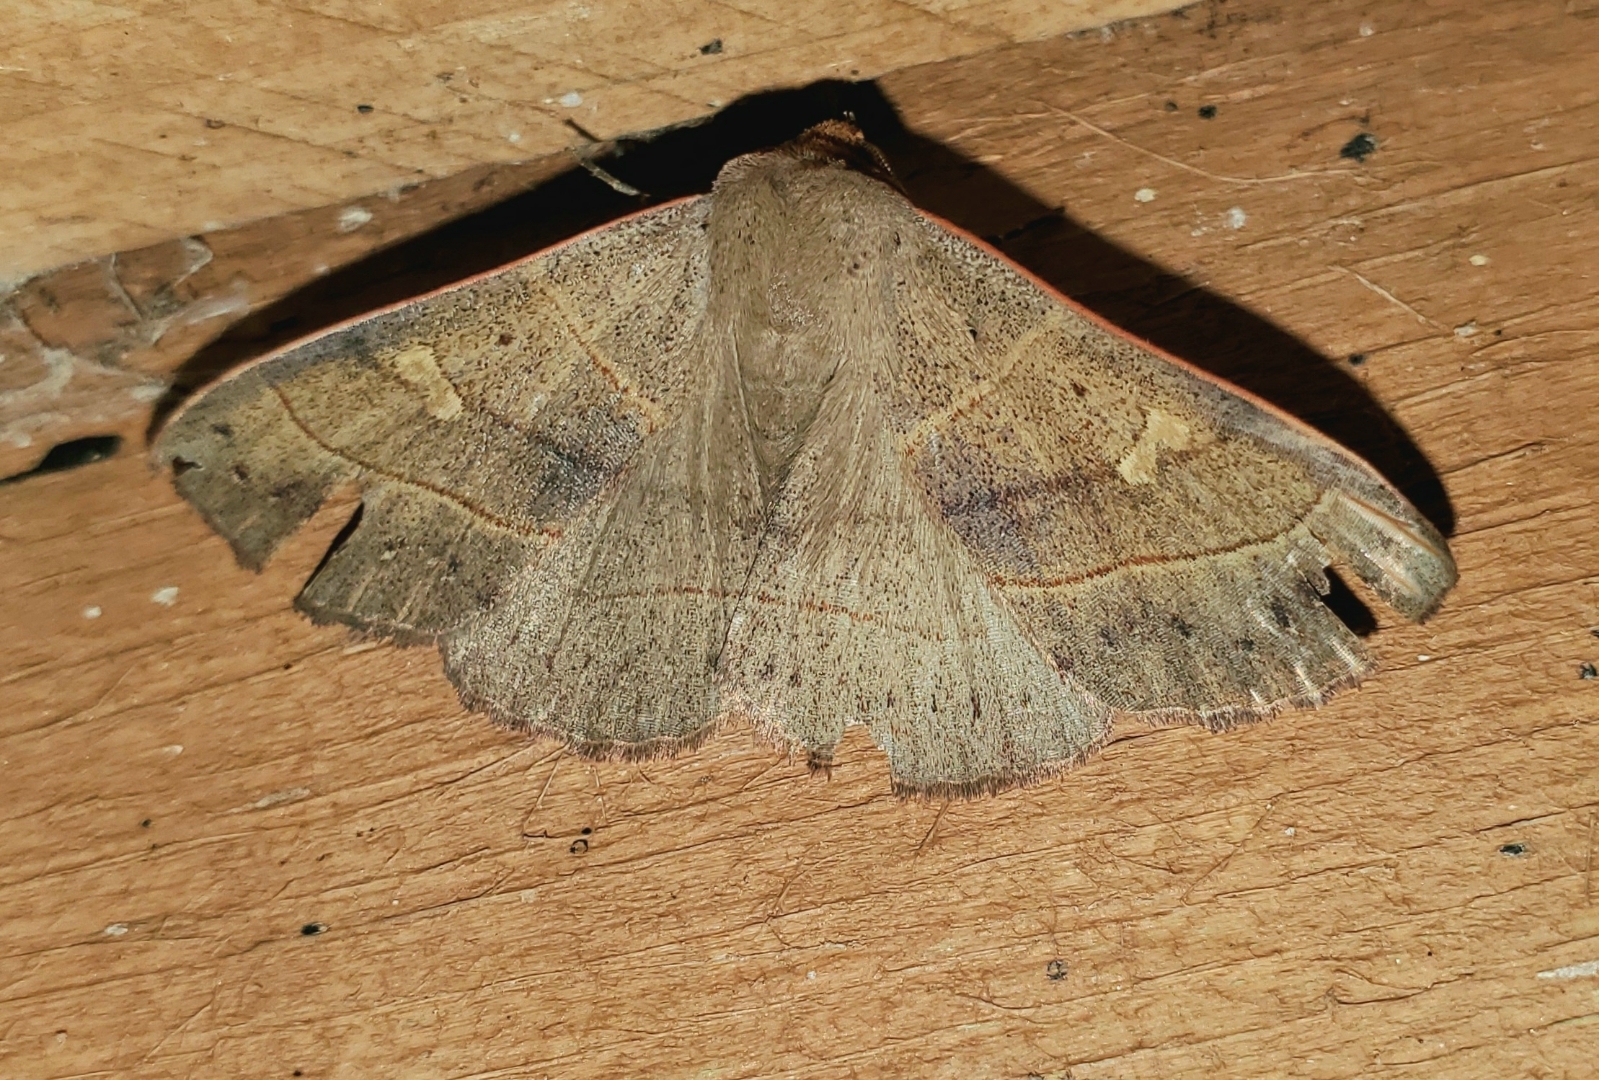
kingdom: Animalia
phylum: Arthropoda
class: Insecta
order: Lepidoptera
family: Erebidae
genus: Panopoda
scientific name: Panopoda rufimargo
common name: Red-lined panopoda moth
